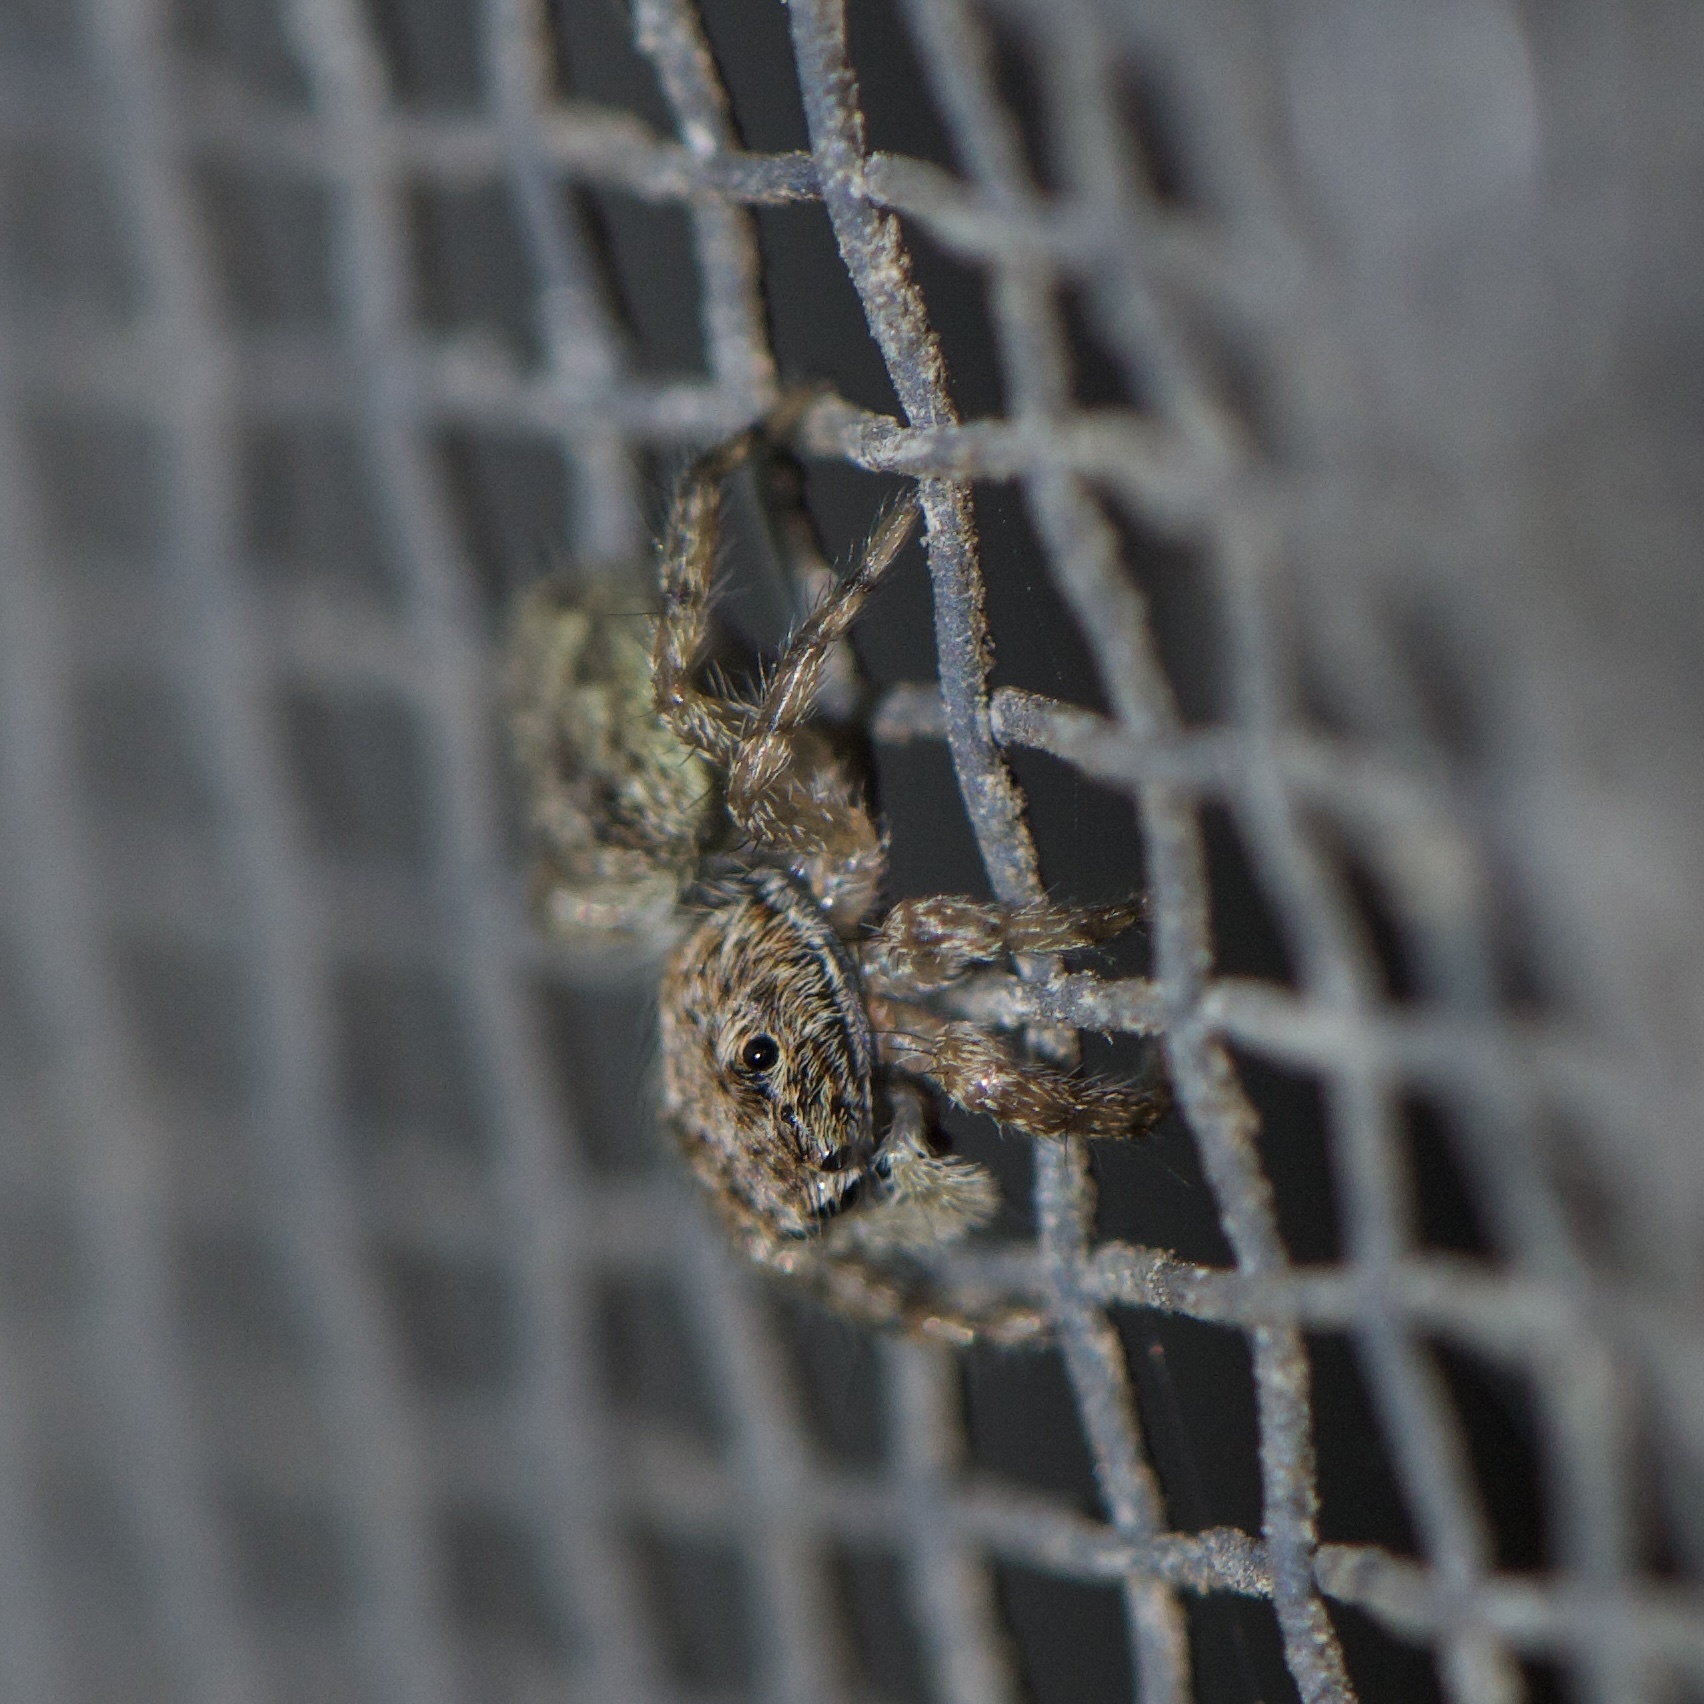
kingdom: Animalia
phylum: Arthropoda
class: Arachnida
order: Araneae
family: Salticidae
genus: Platycryptus
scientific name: Platycryptus undatus
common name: Tan jumping spider
